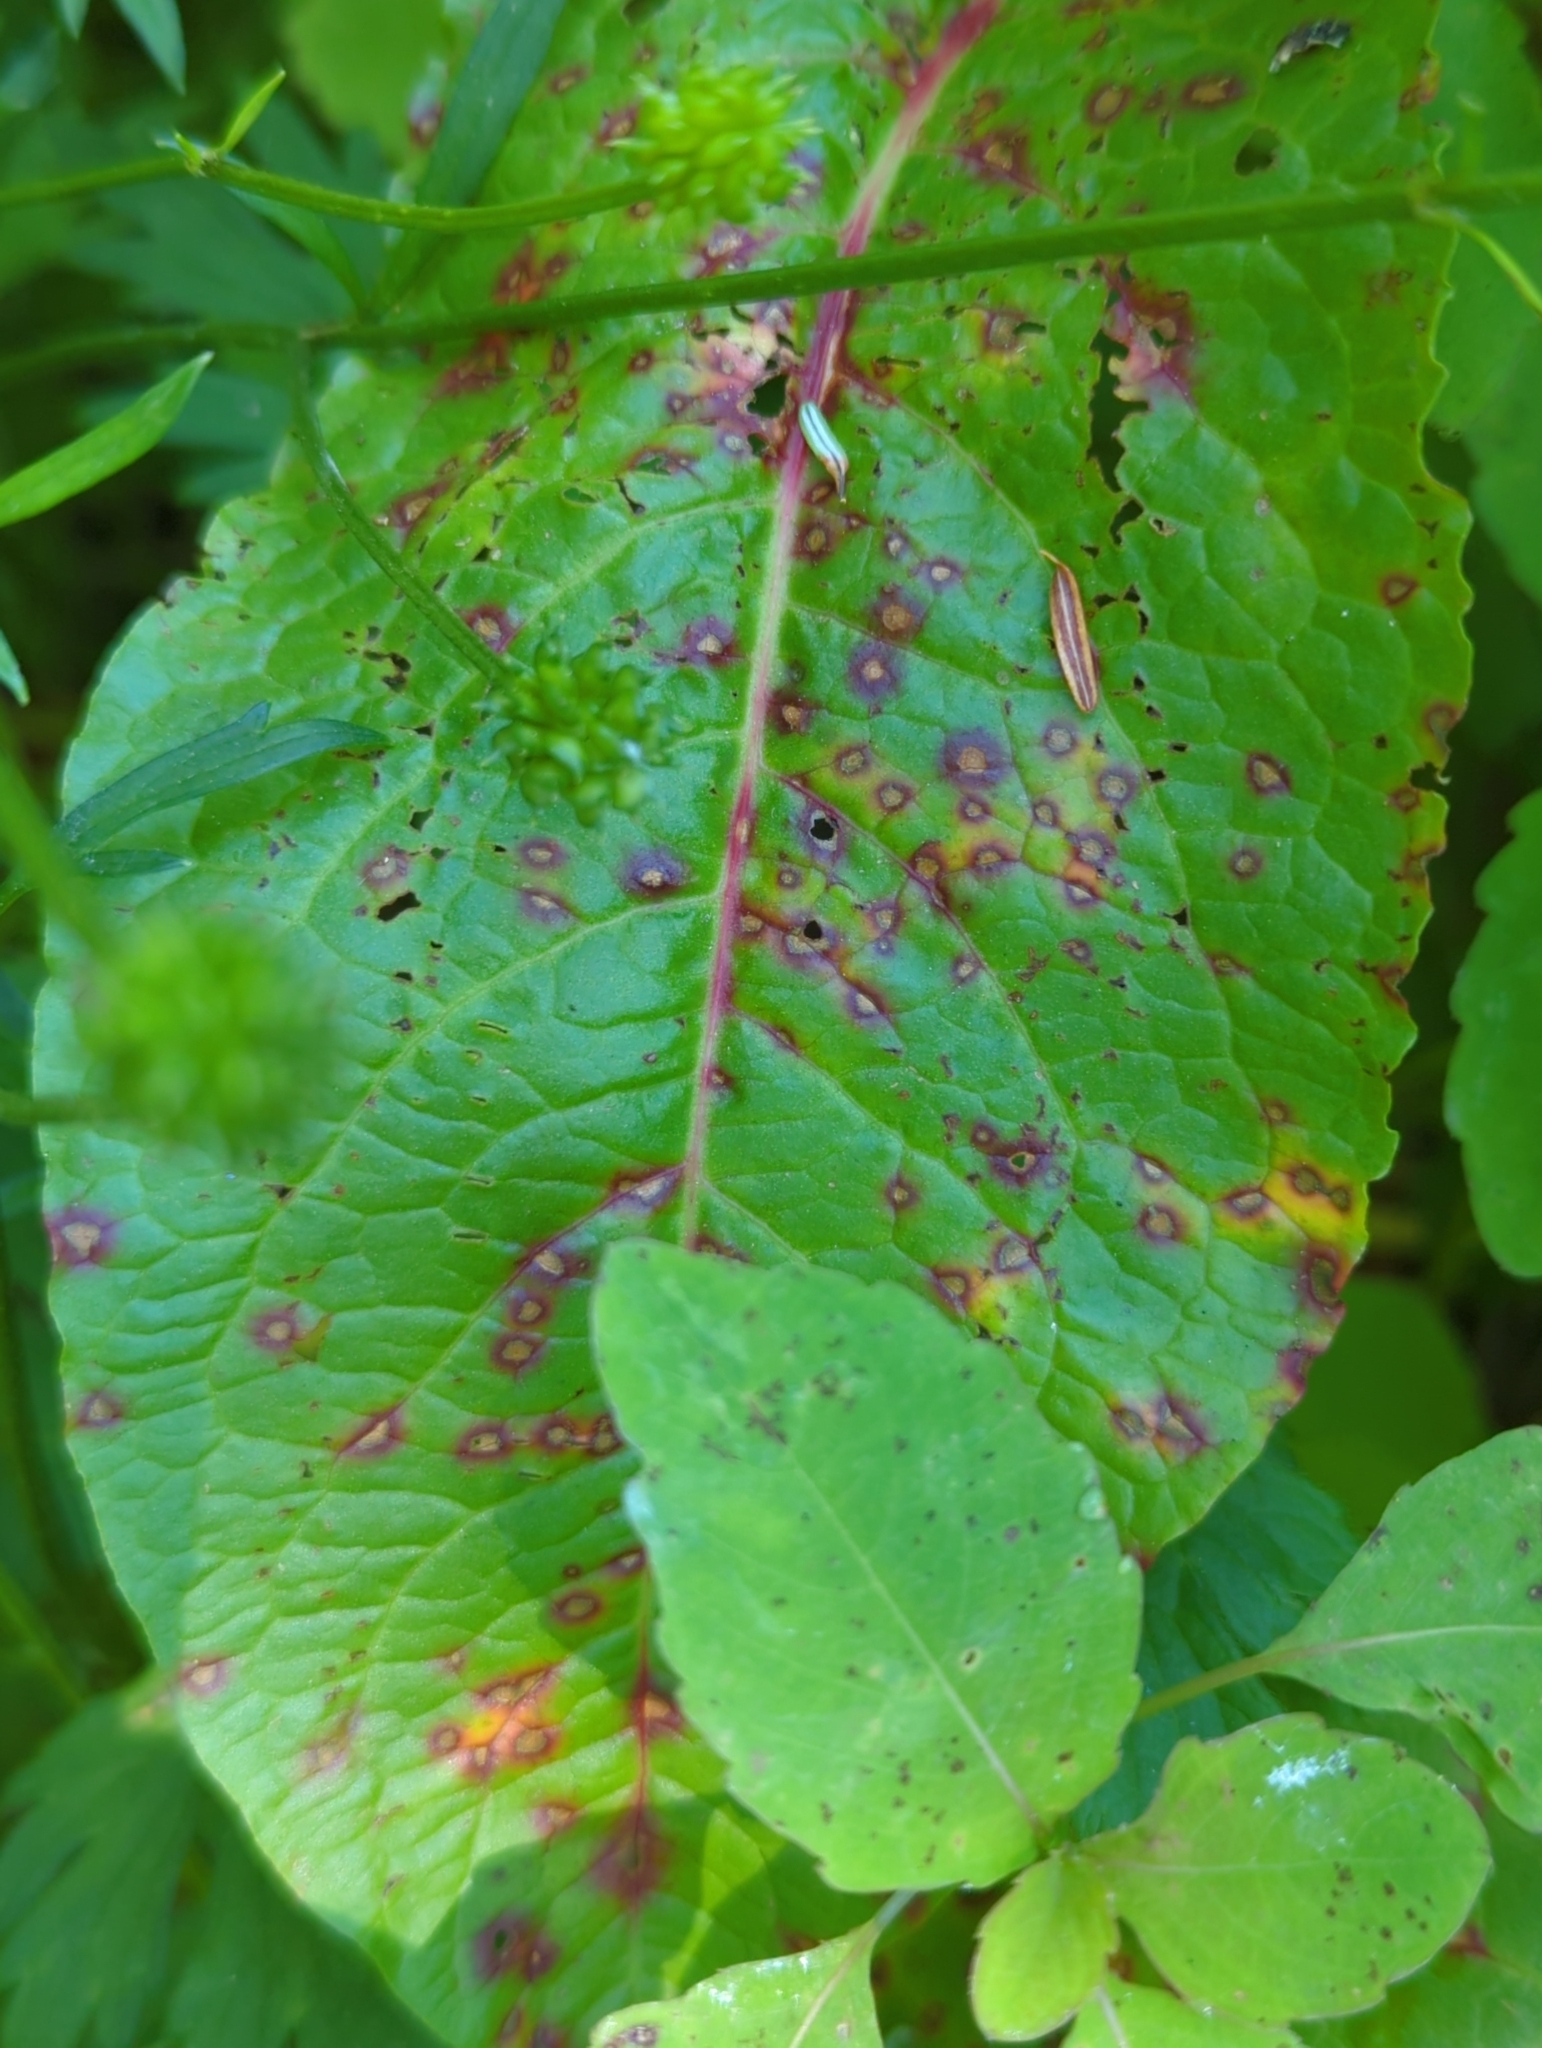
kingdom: Fungi
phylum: Ascomycota
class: Dothideomycetes
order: Mycosphaerellales
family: Mycosphaerellaceae
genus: Ramularia
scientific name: Ramularia rubella
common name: Red dock spot
